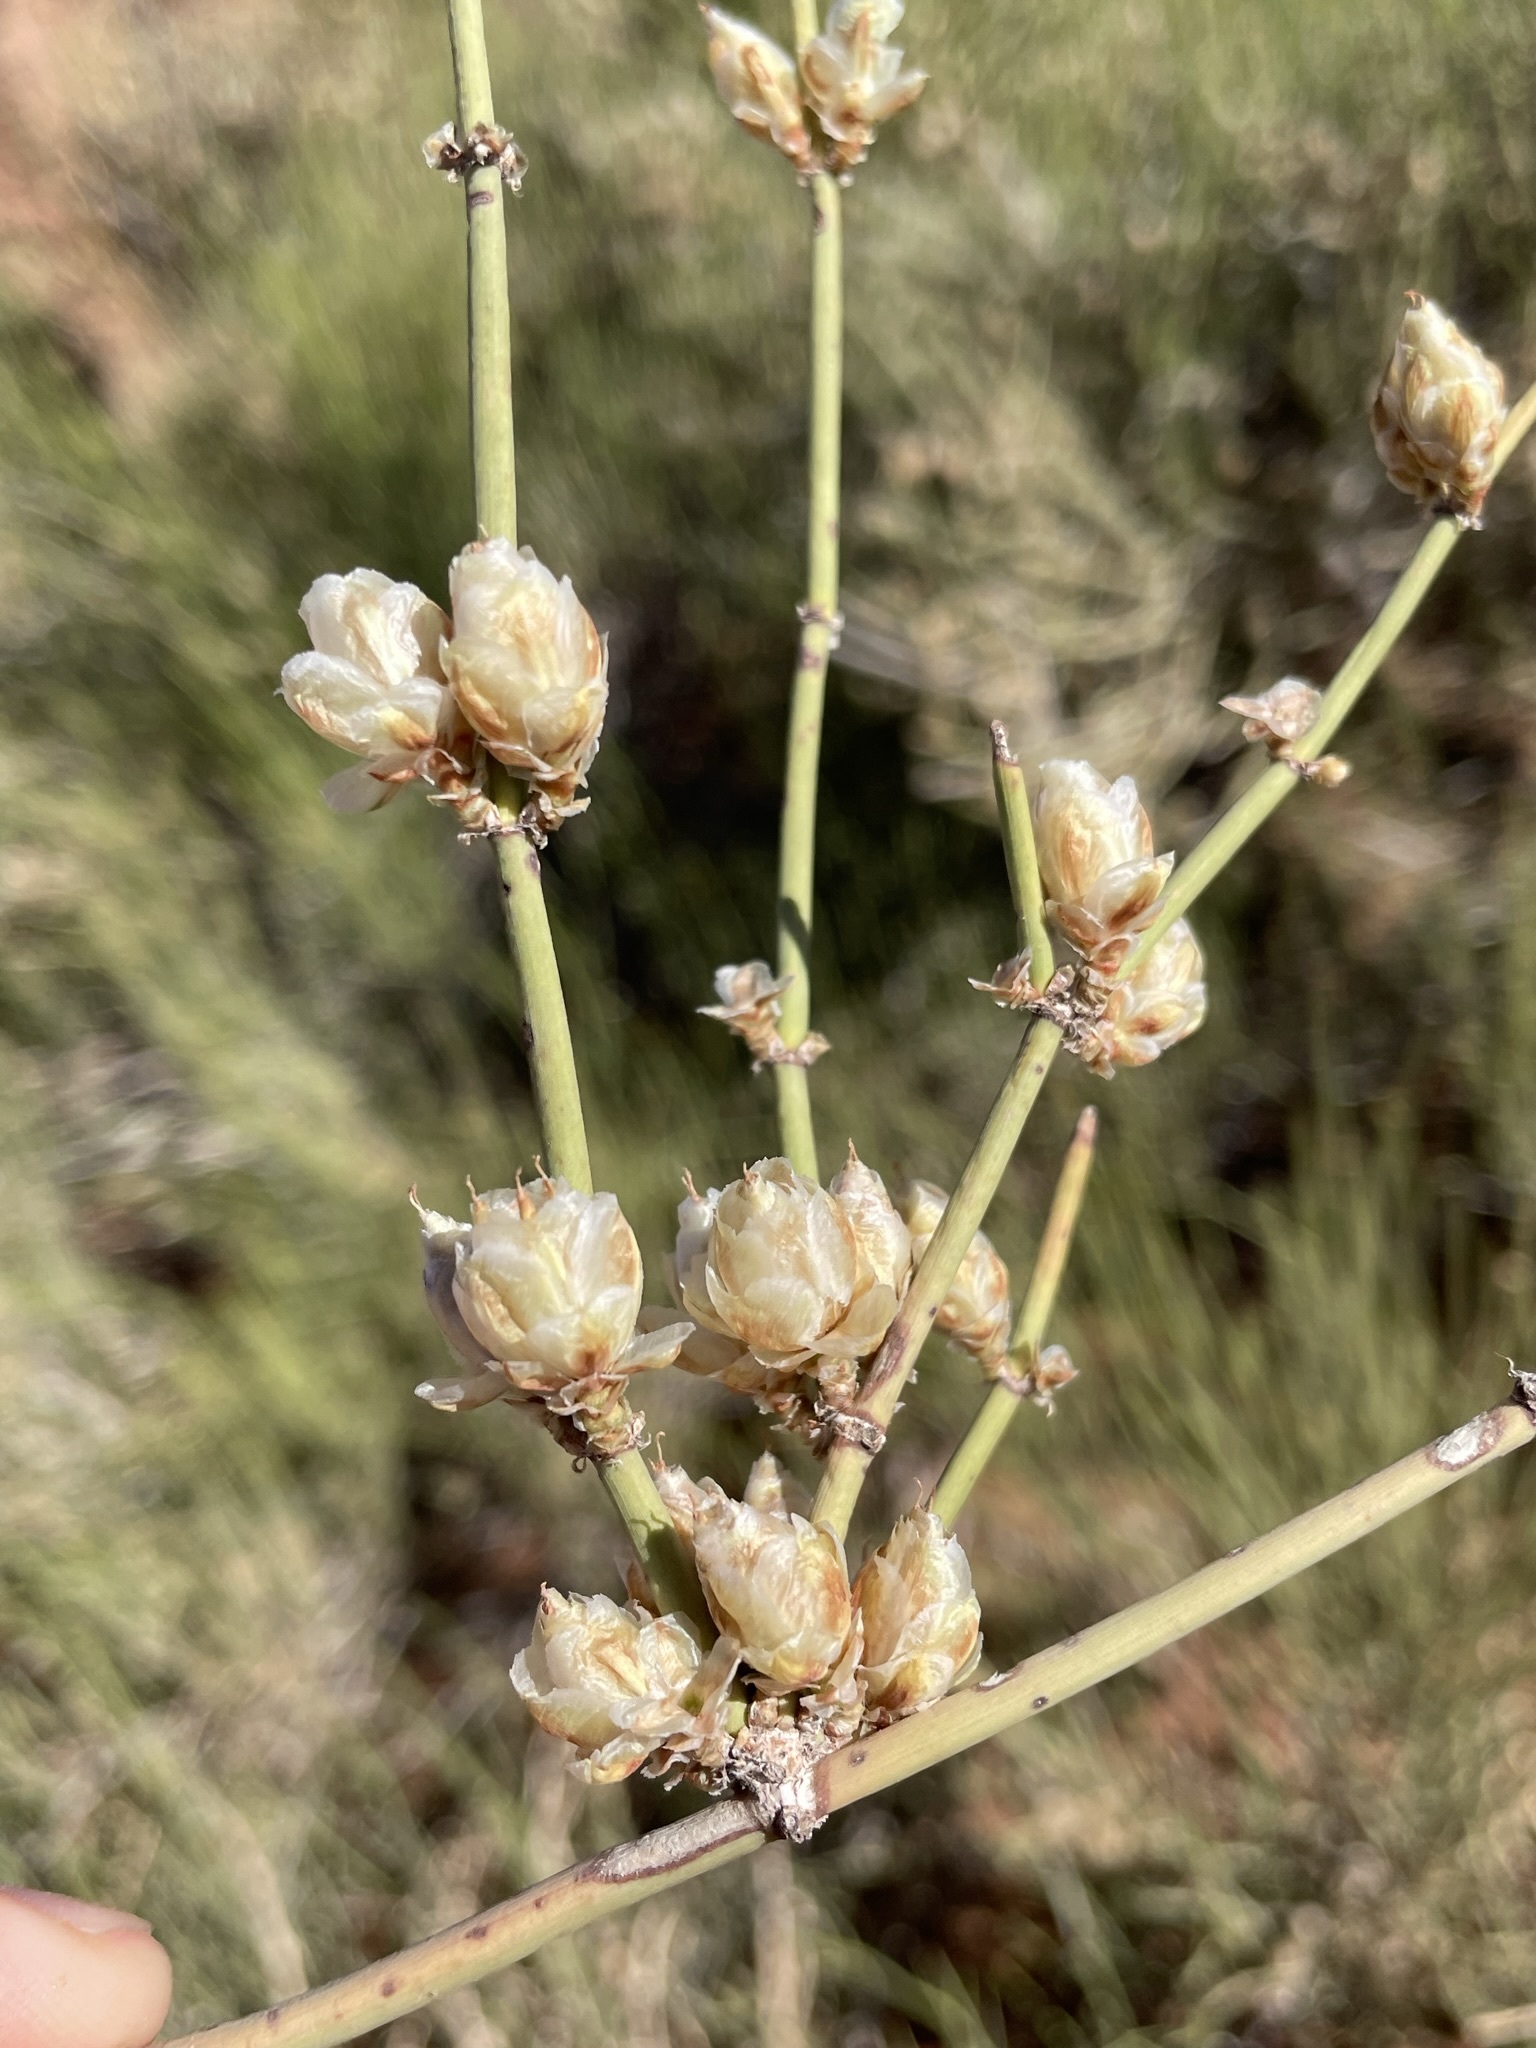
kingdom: Plantae
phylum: Tracheophyta
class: Gnetopsida
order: Ephedrales
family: Ephedraceae
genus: Ephedra
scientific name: Ephedra torreyana
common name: Torrey ephedra
